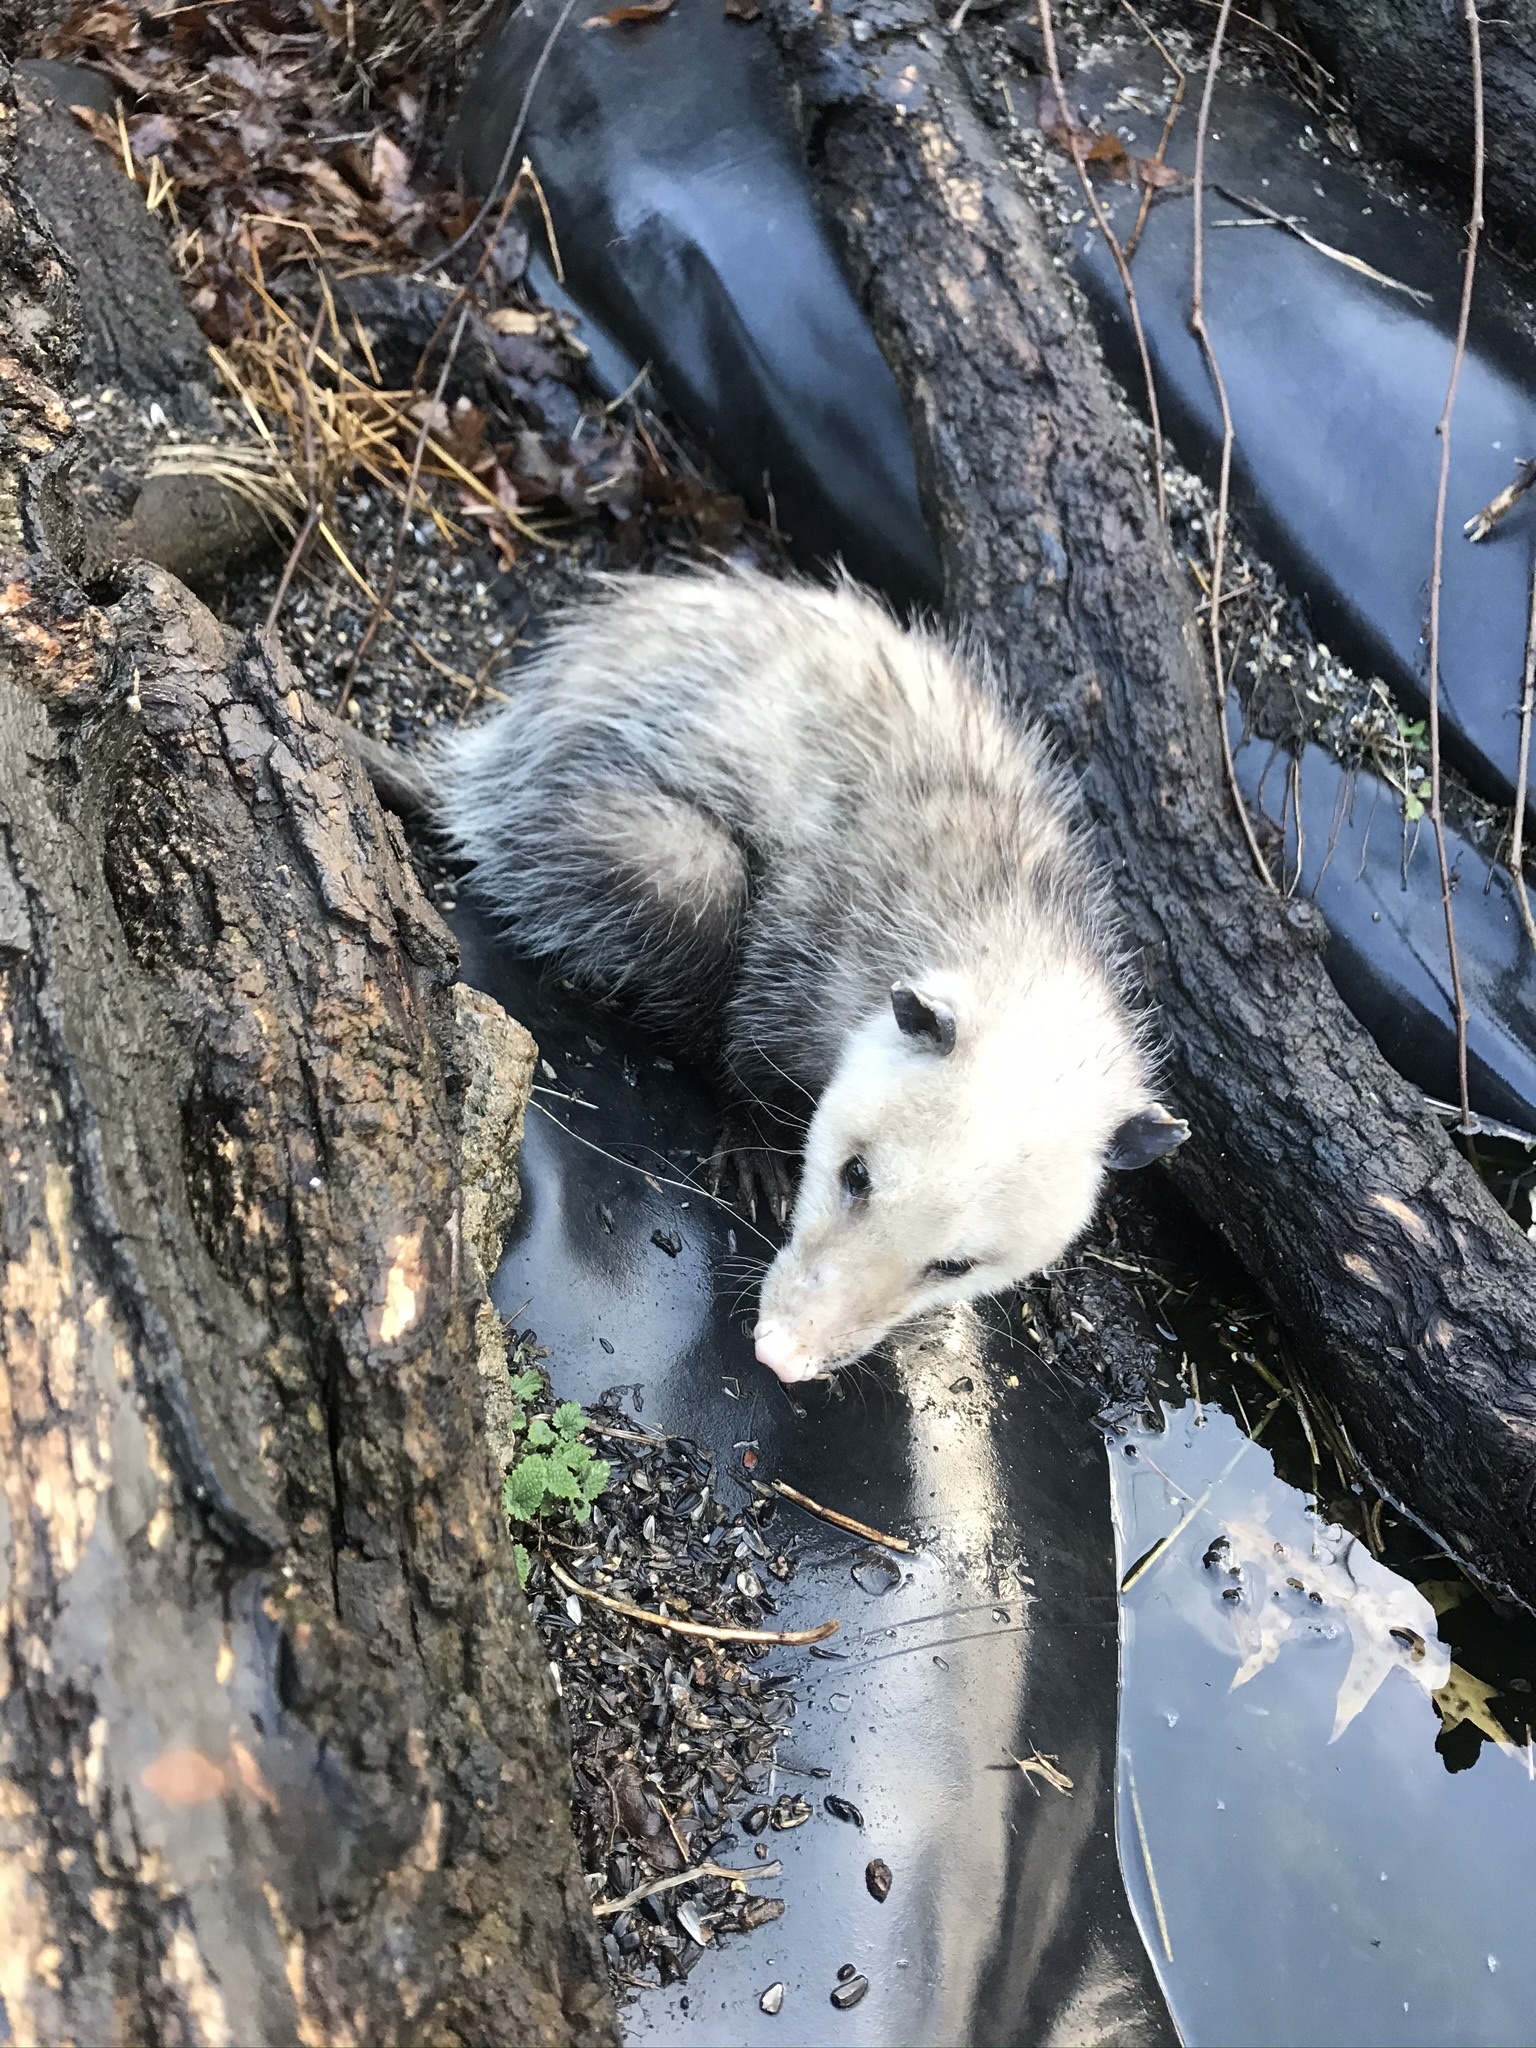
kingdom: Animalia
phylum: Chordata
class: Mammalia
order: Didelphimorphia
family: Didelphidae
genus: Didelphis
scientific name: Didelphis virginiana
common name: Virginia opossum
